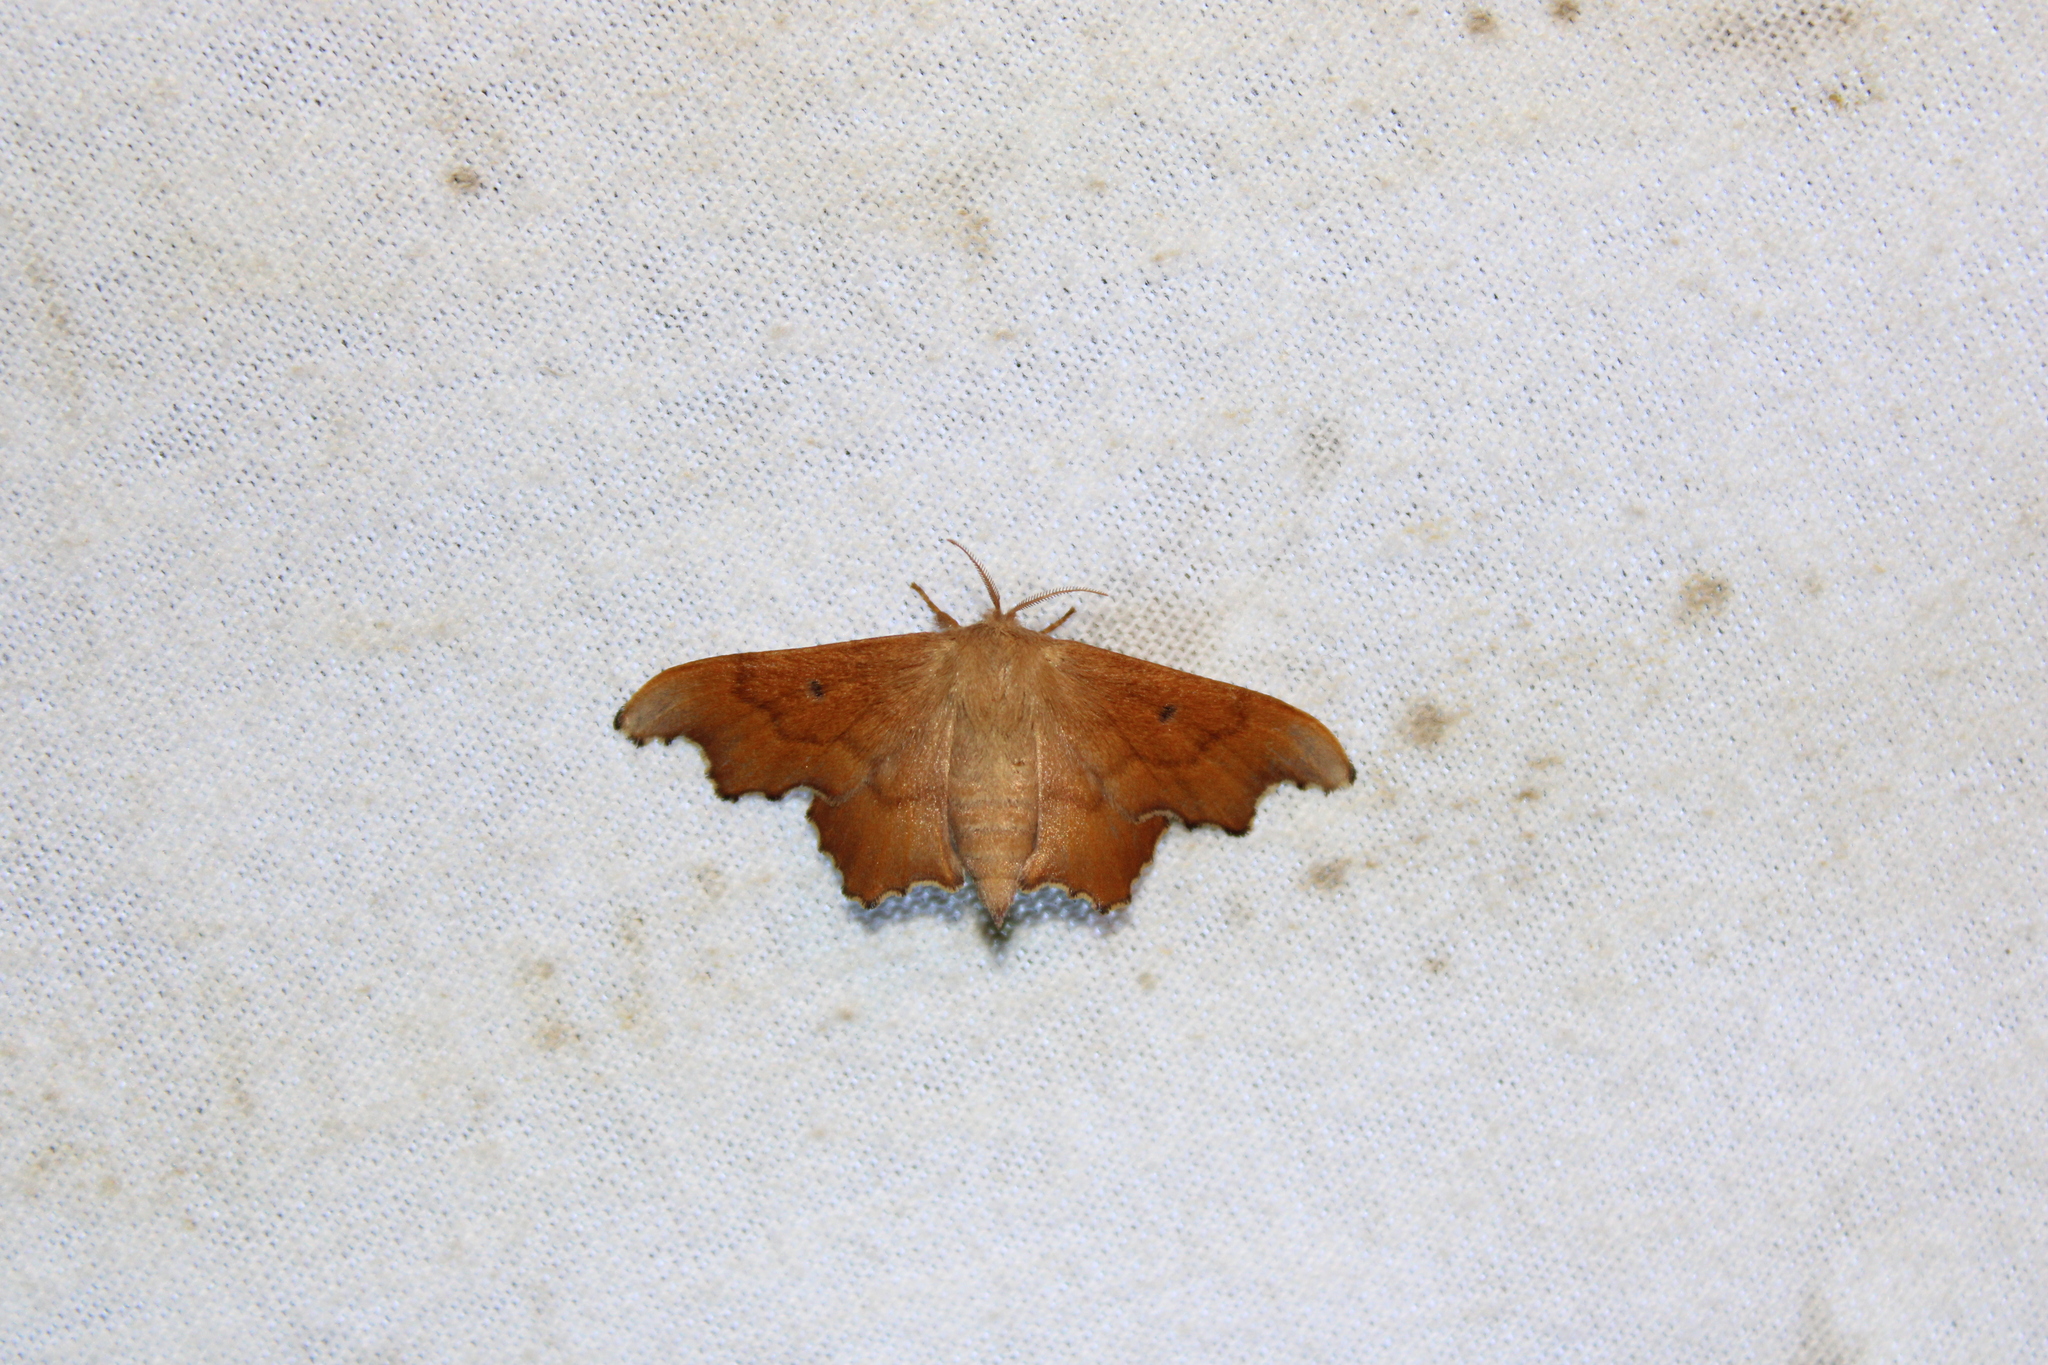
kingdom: Animalia
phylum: Arthropoda
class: Insecta
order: Lepidoptera
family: Mimallonidae
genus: Lacosoma
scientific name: Lacosoma chiridota
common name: Scalloped sack-bearer moth
